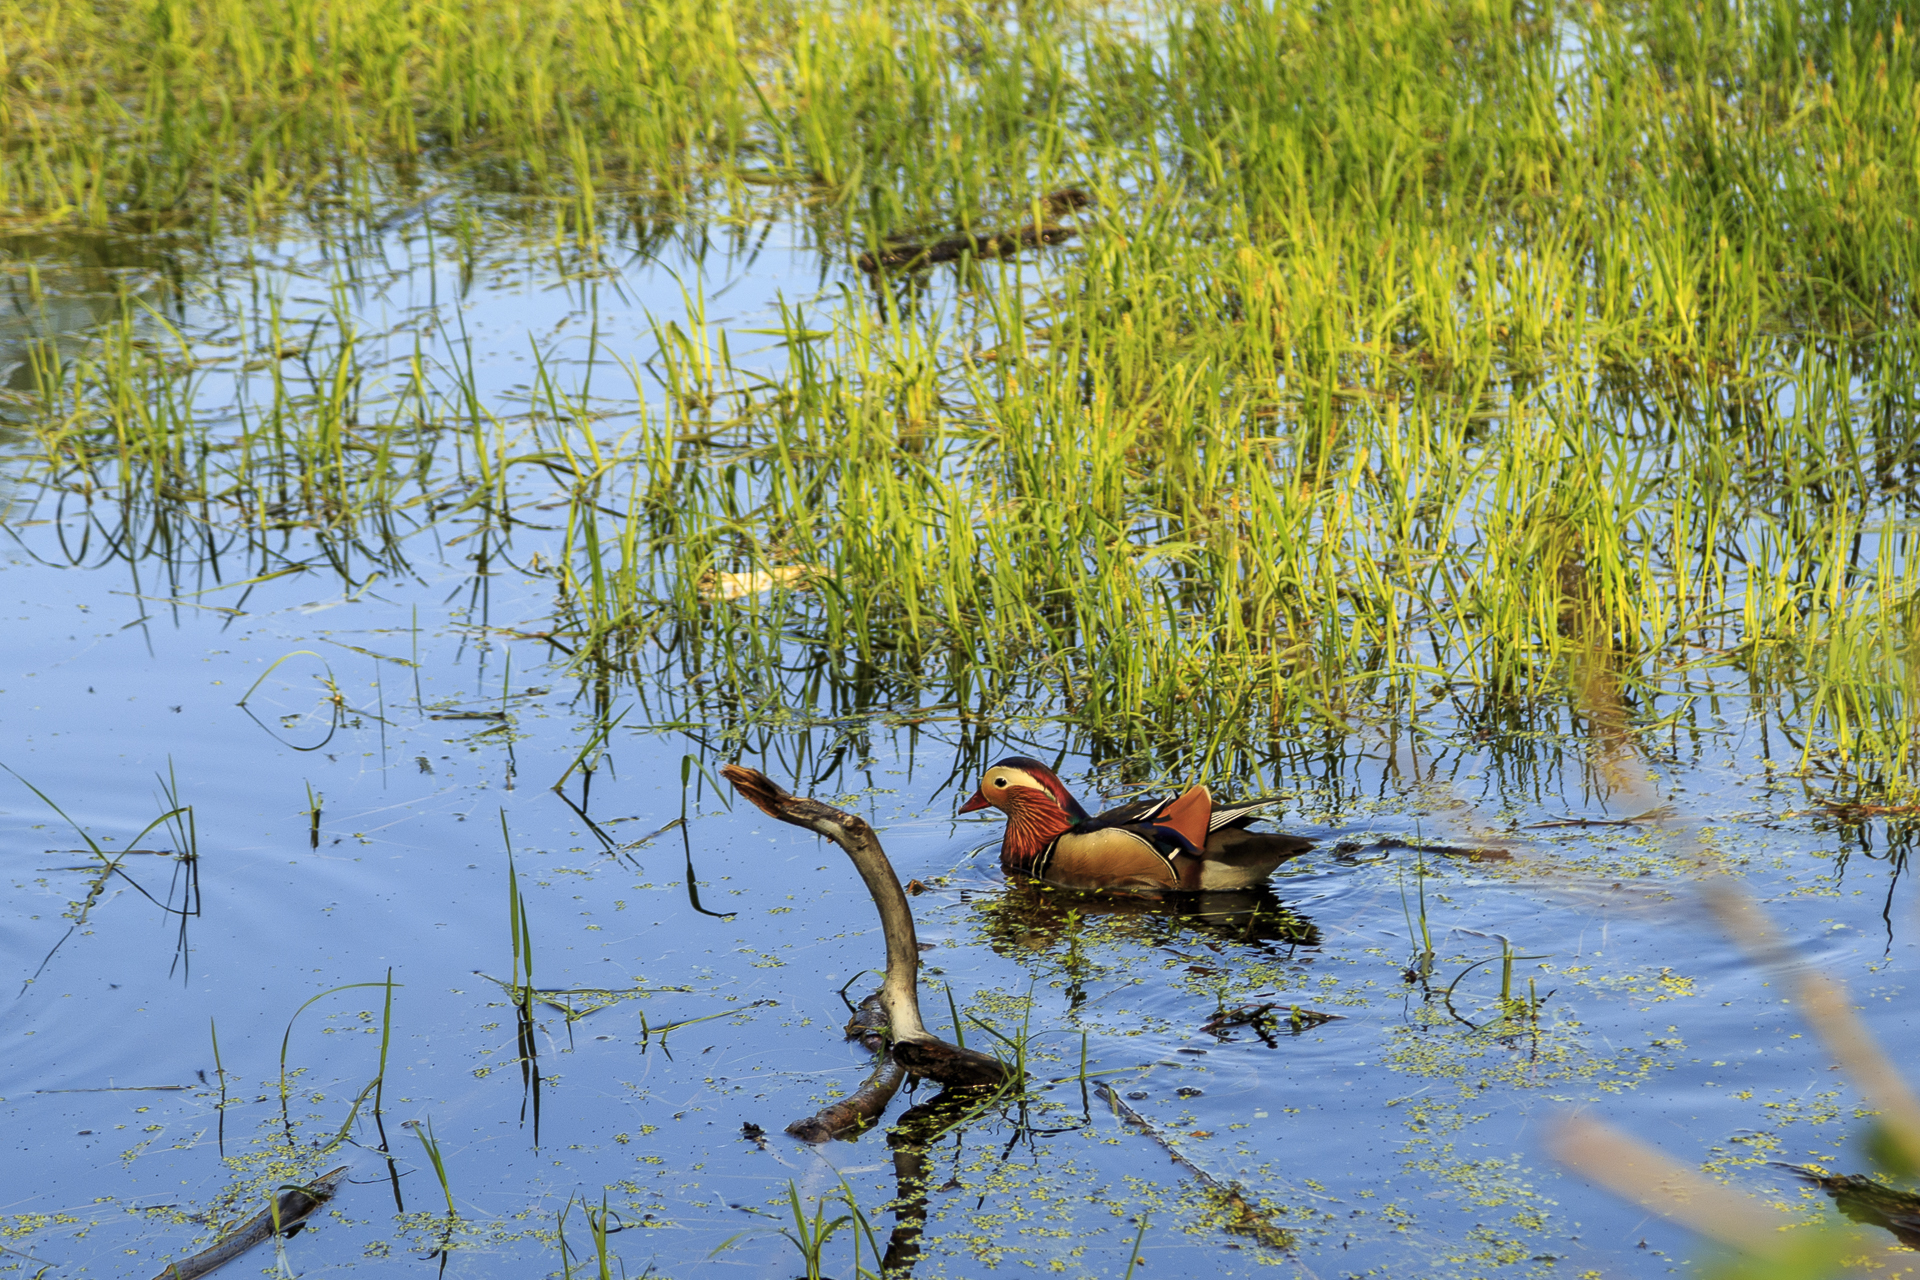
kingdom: Animalia
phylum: Chordata
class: Aves
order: Anseriformes
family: Anatidae
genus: Aix
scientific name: Aix galericulata
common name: Mandarin duck
